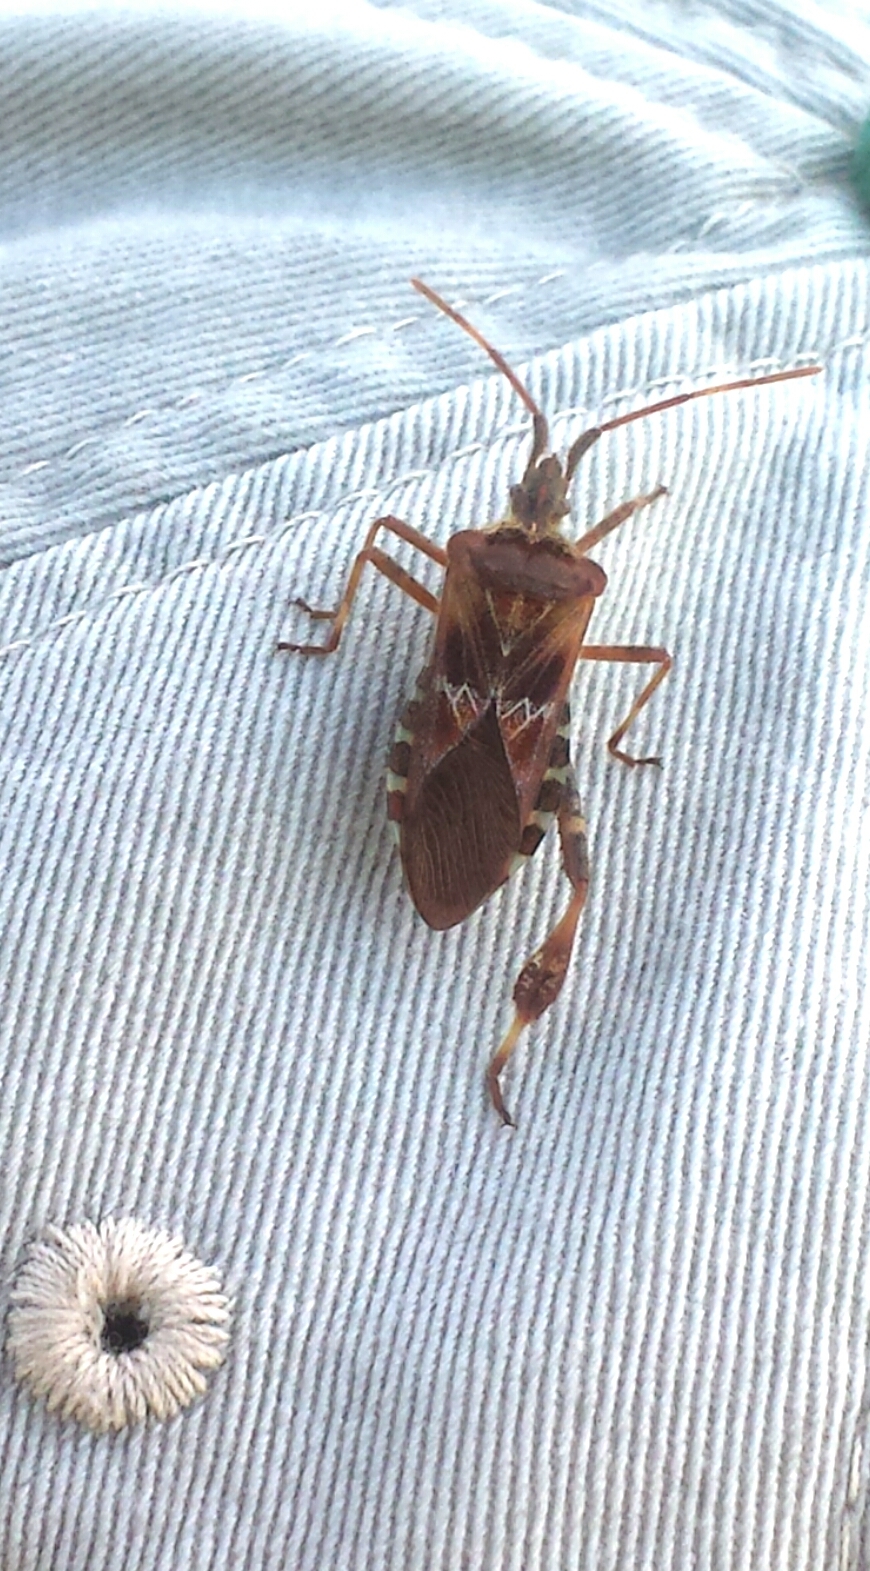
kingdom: Animalia
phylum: Arthropoda
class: Insecta
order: Hemiptera
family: Coreidae
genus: Leptoglossus
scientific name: Leptoglossus occidentalis
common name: Western conifer-seed bug
